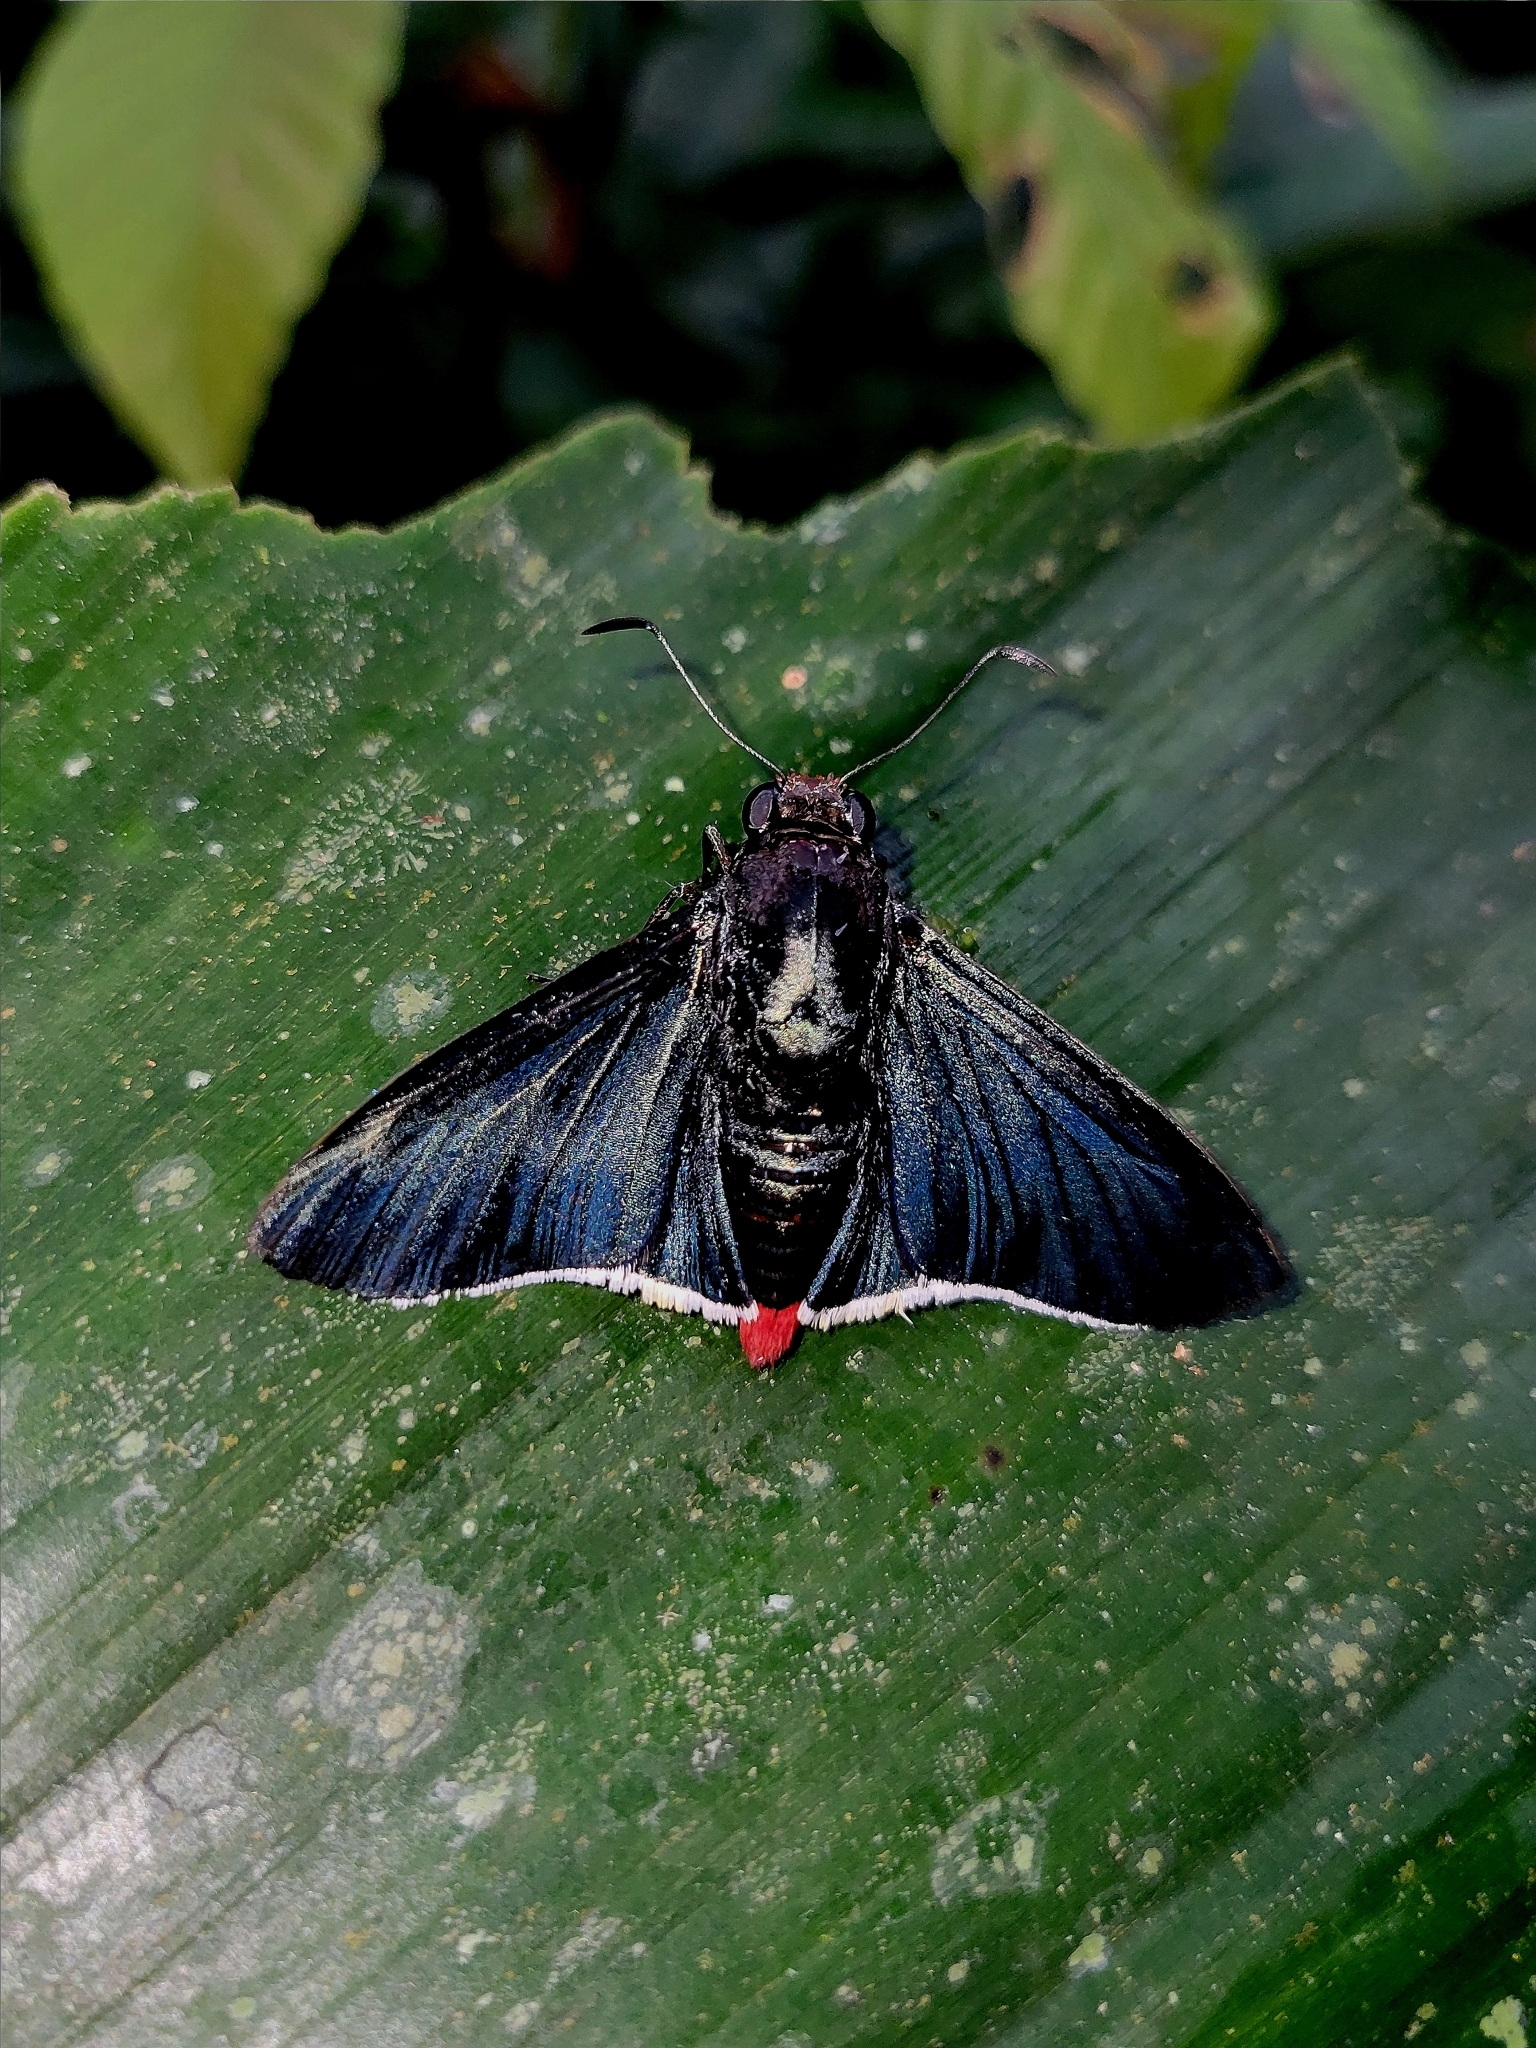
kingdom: Animalia
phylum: Arthropoda
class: Insecta
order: Lepidoptera
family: Hesperiidae
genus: Pyrrhopygopsis
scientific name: Pyrrhopygopsis socrates
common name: Socrates skipper
